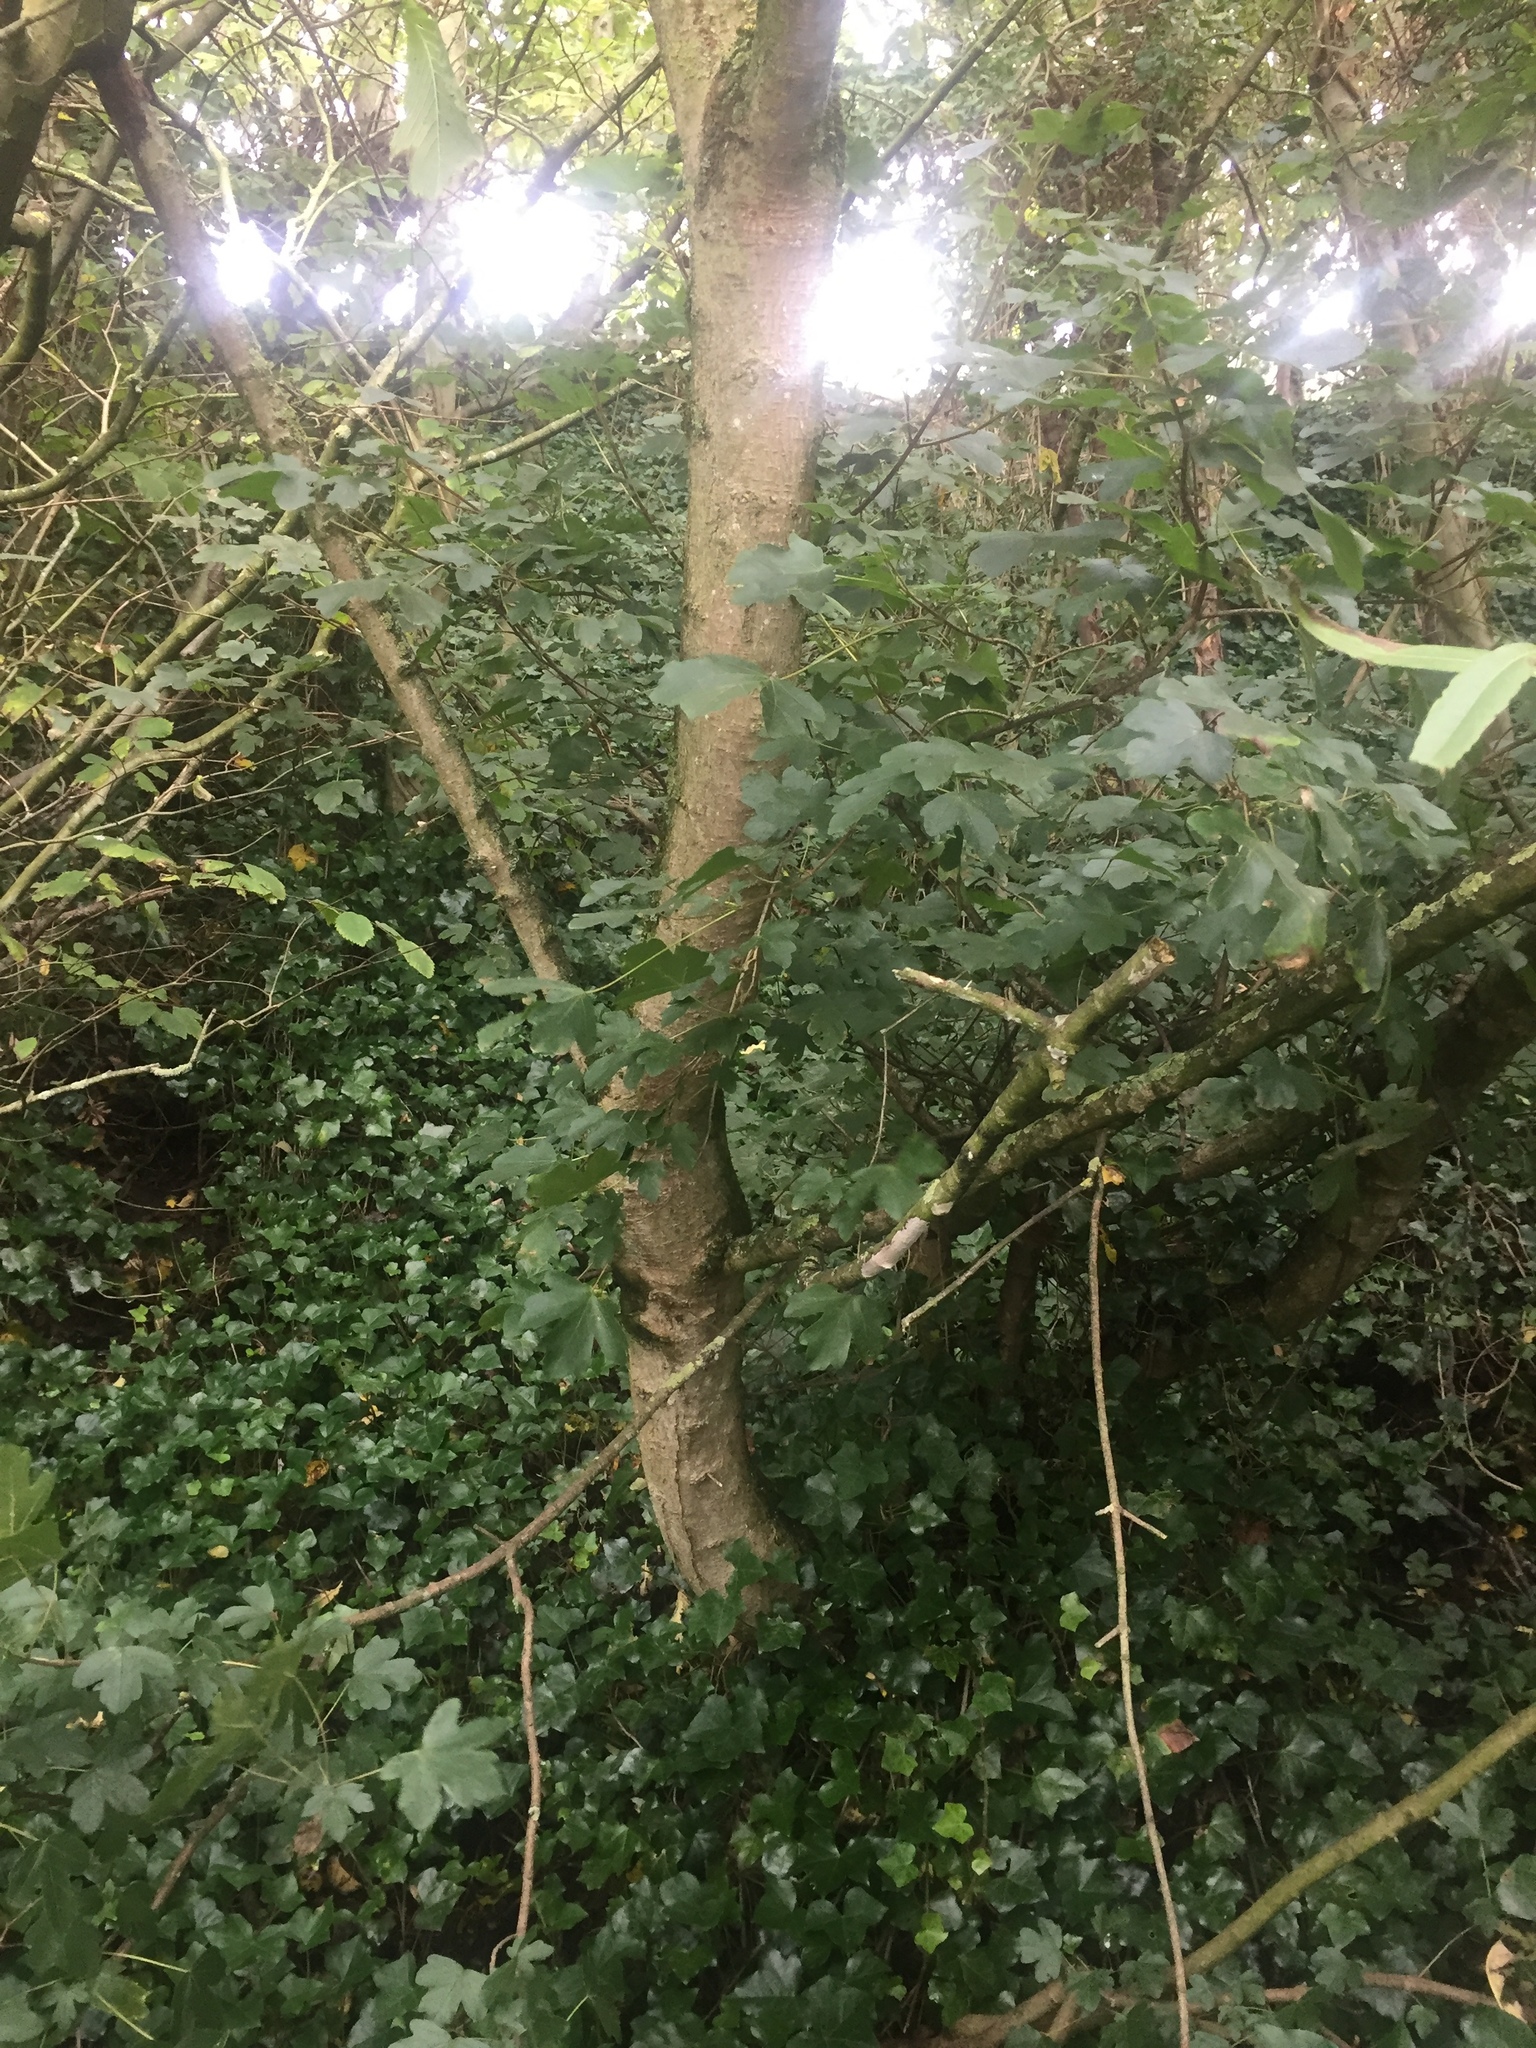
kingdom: Plantae
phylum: Tracheophyta
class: Magnoliopsida
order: Sapindales
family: Sapindaceae
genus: Acer
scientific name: Acer campestre
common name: Field maple
